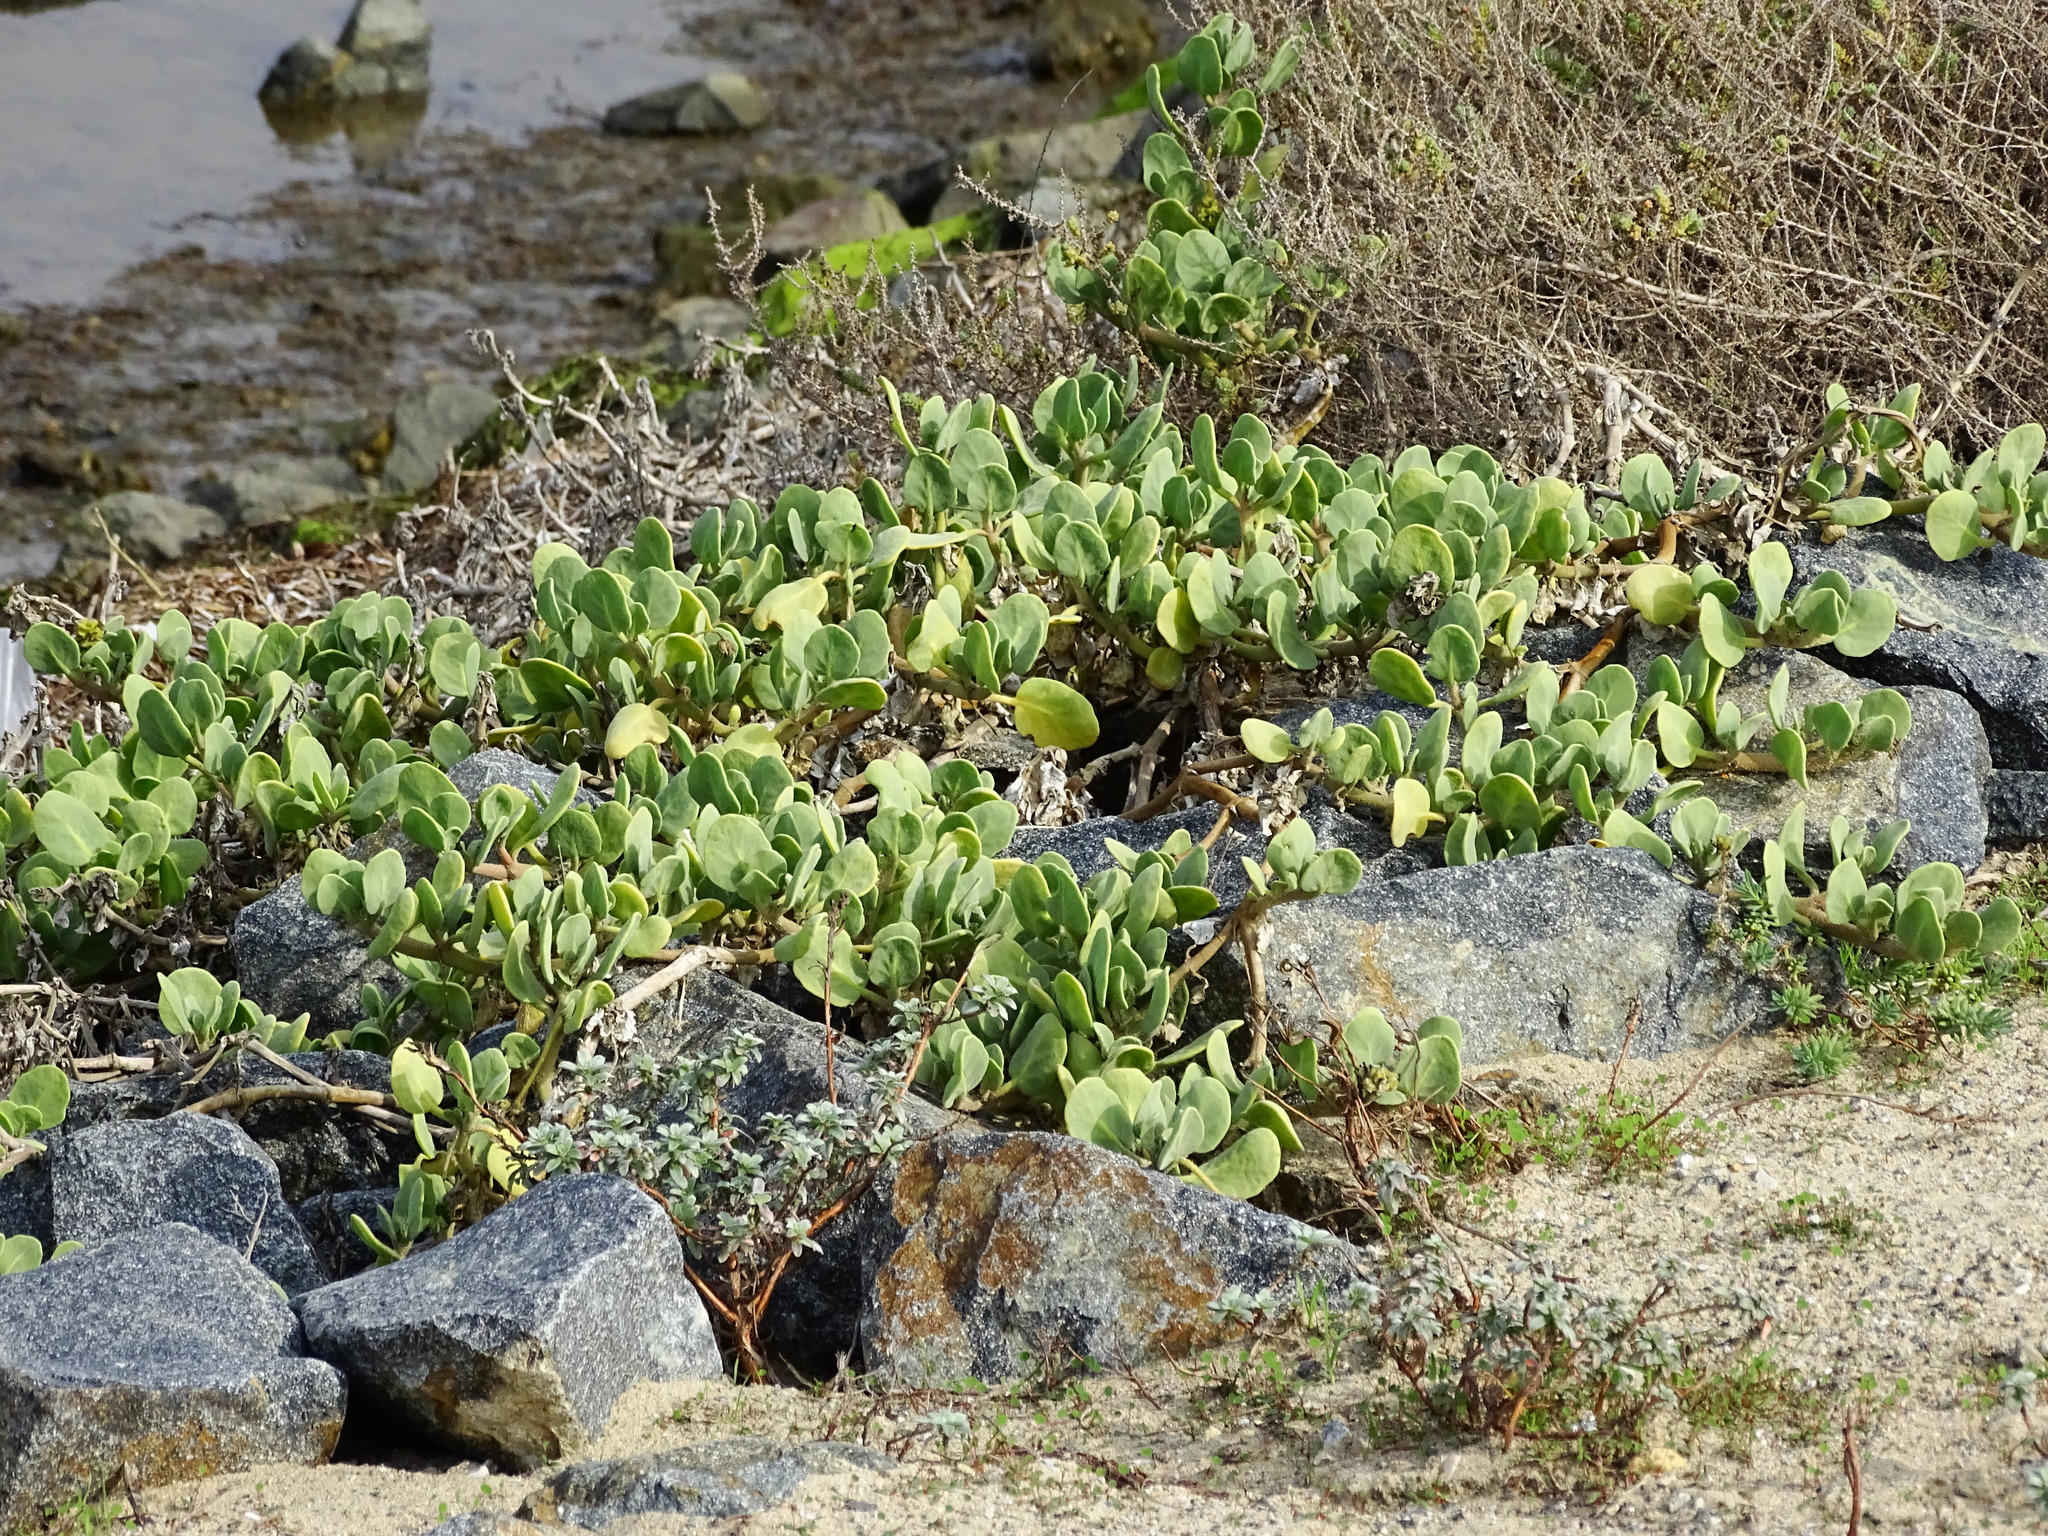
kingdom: Plantae
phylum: Tracheophyta
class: Magnoliopsida
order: Caryophyllales
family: Nyctaginaceae
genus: Abronia
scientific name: Abronia maritima
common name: Red sand-verbena
